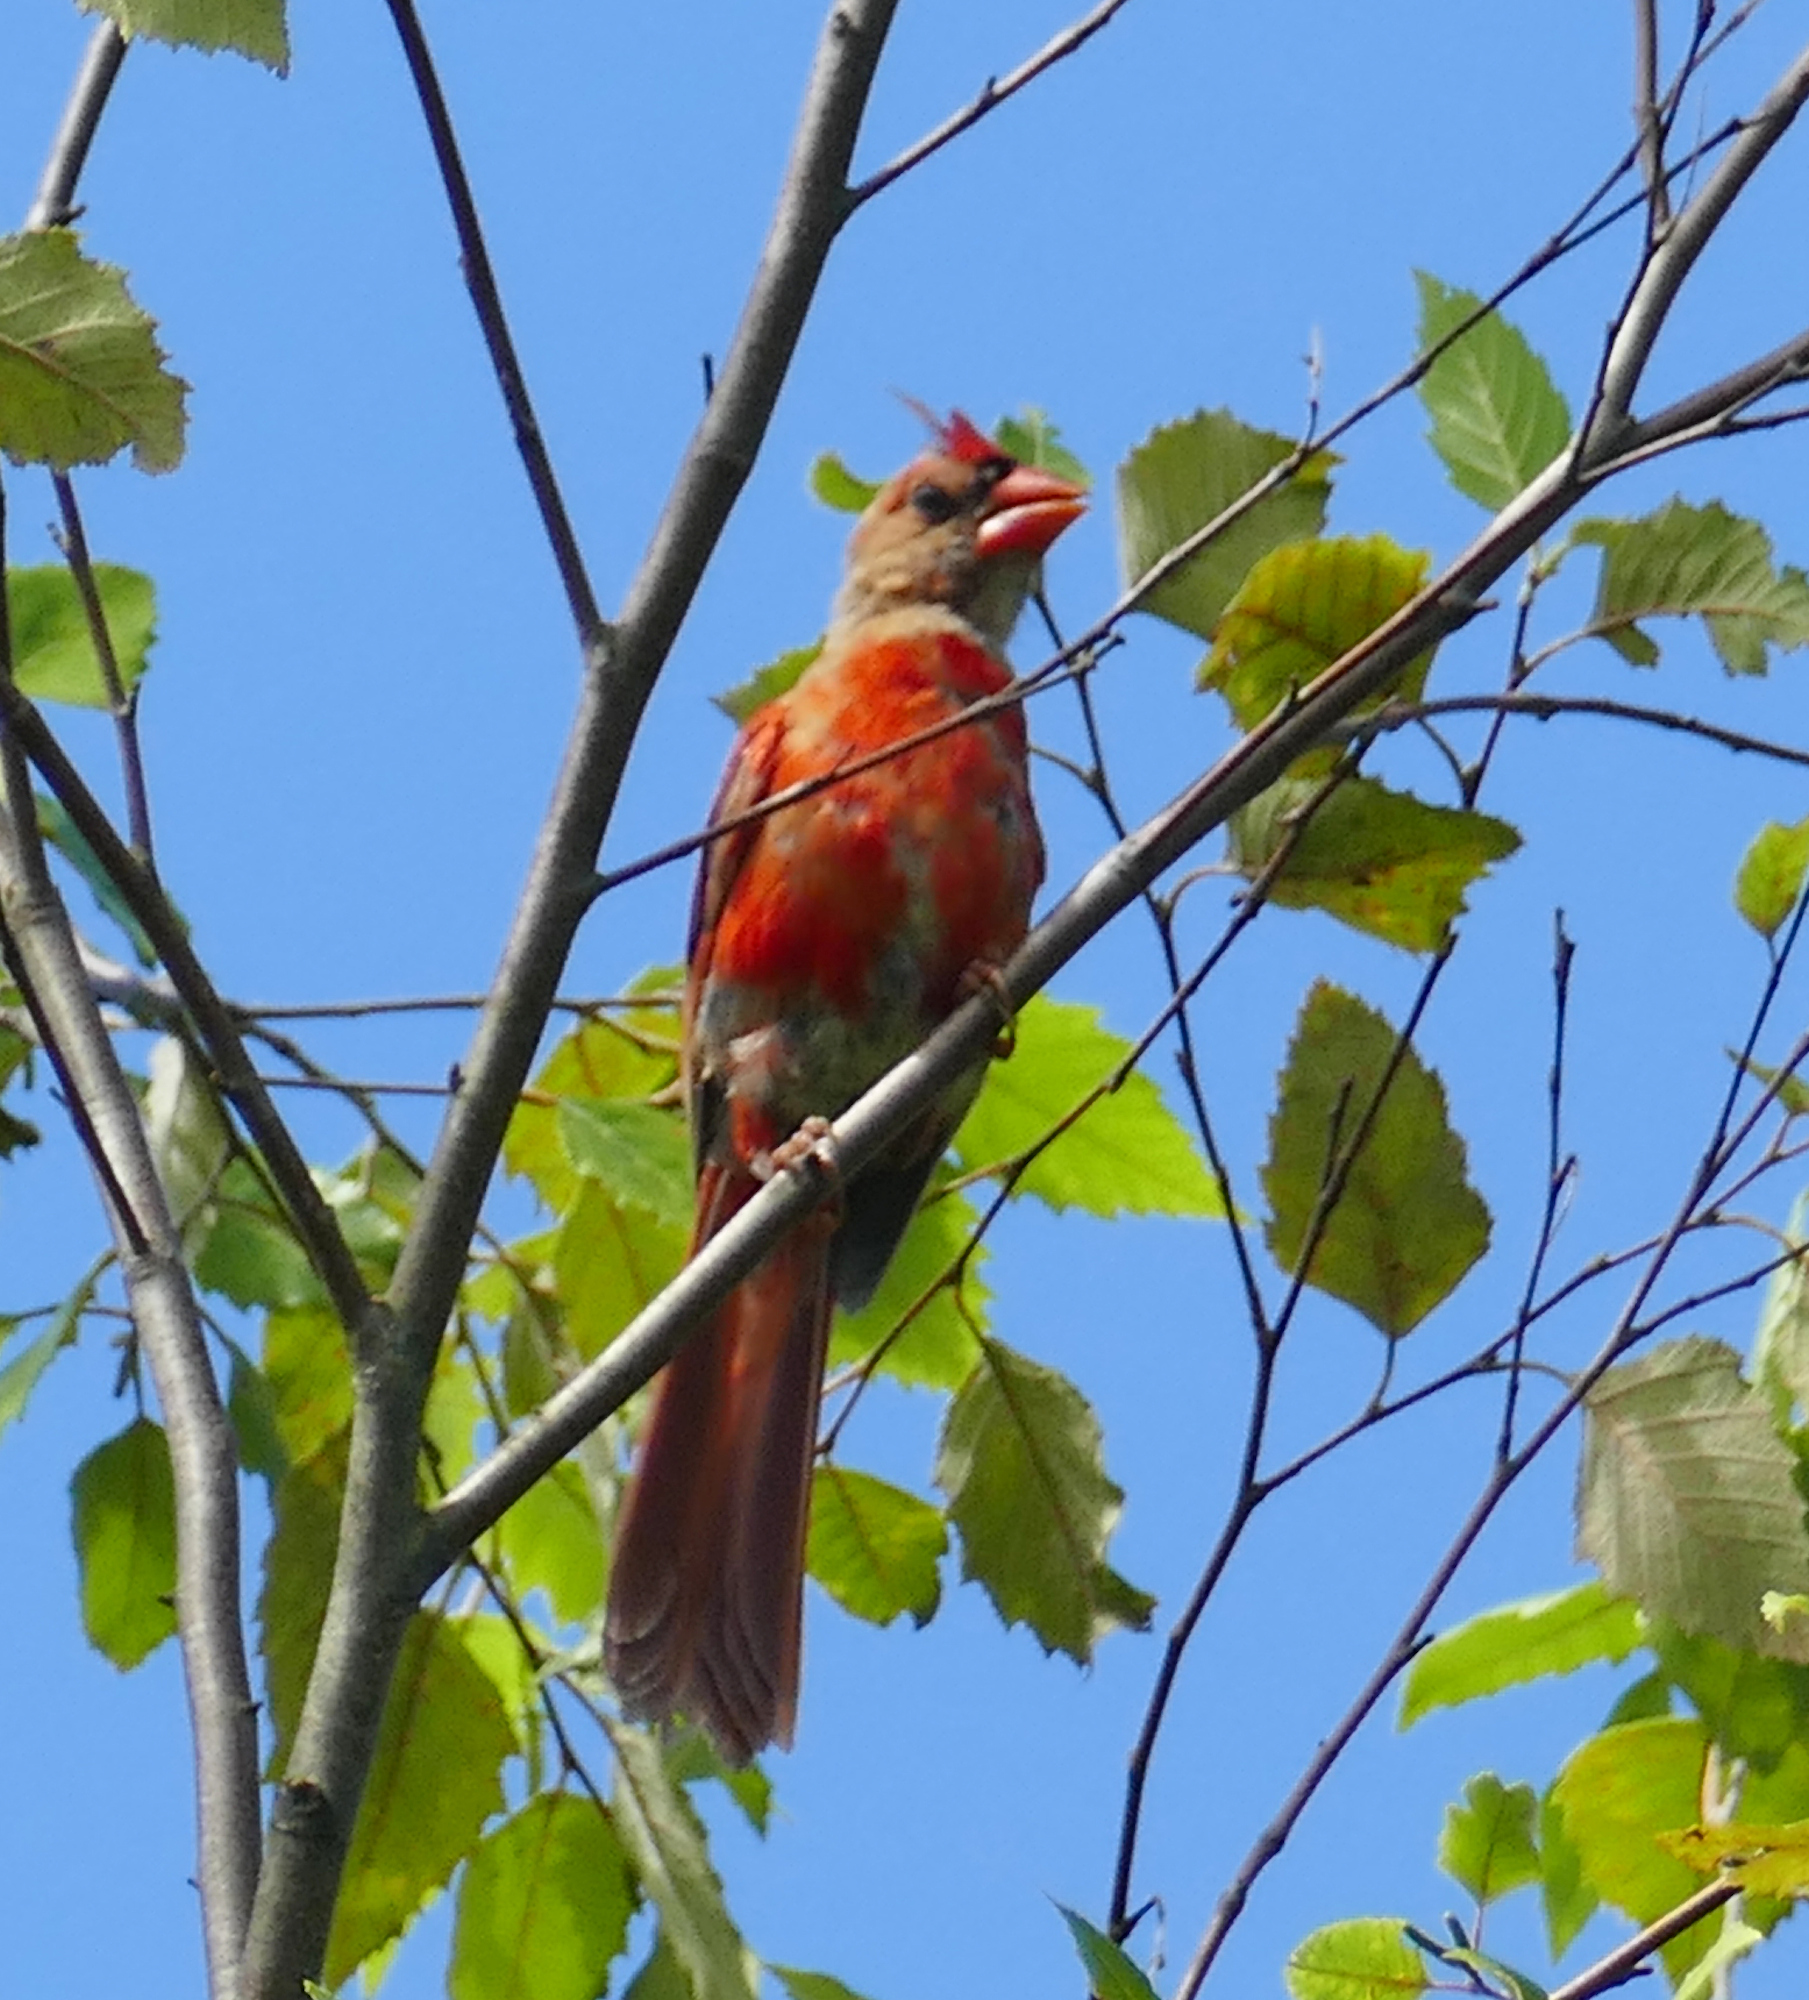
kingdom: Animalia
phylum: Chordata
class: Aves
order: Passeriformes
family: Cardinalidae
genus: Cardinalis
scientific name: Cardinalis cardinalis
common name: Northern cardinal
